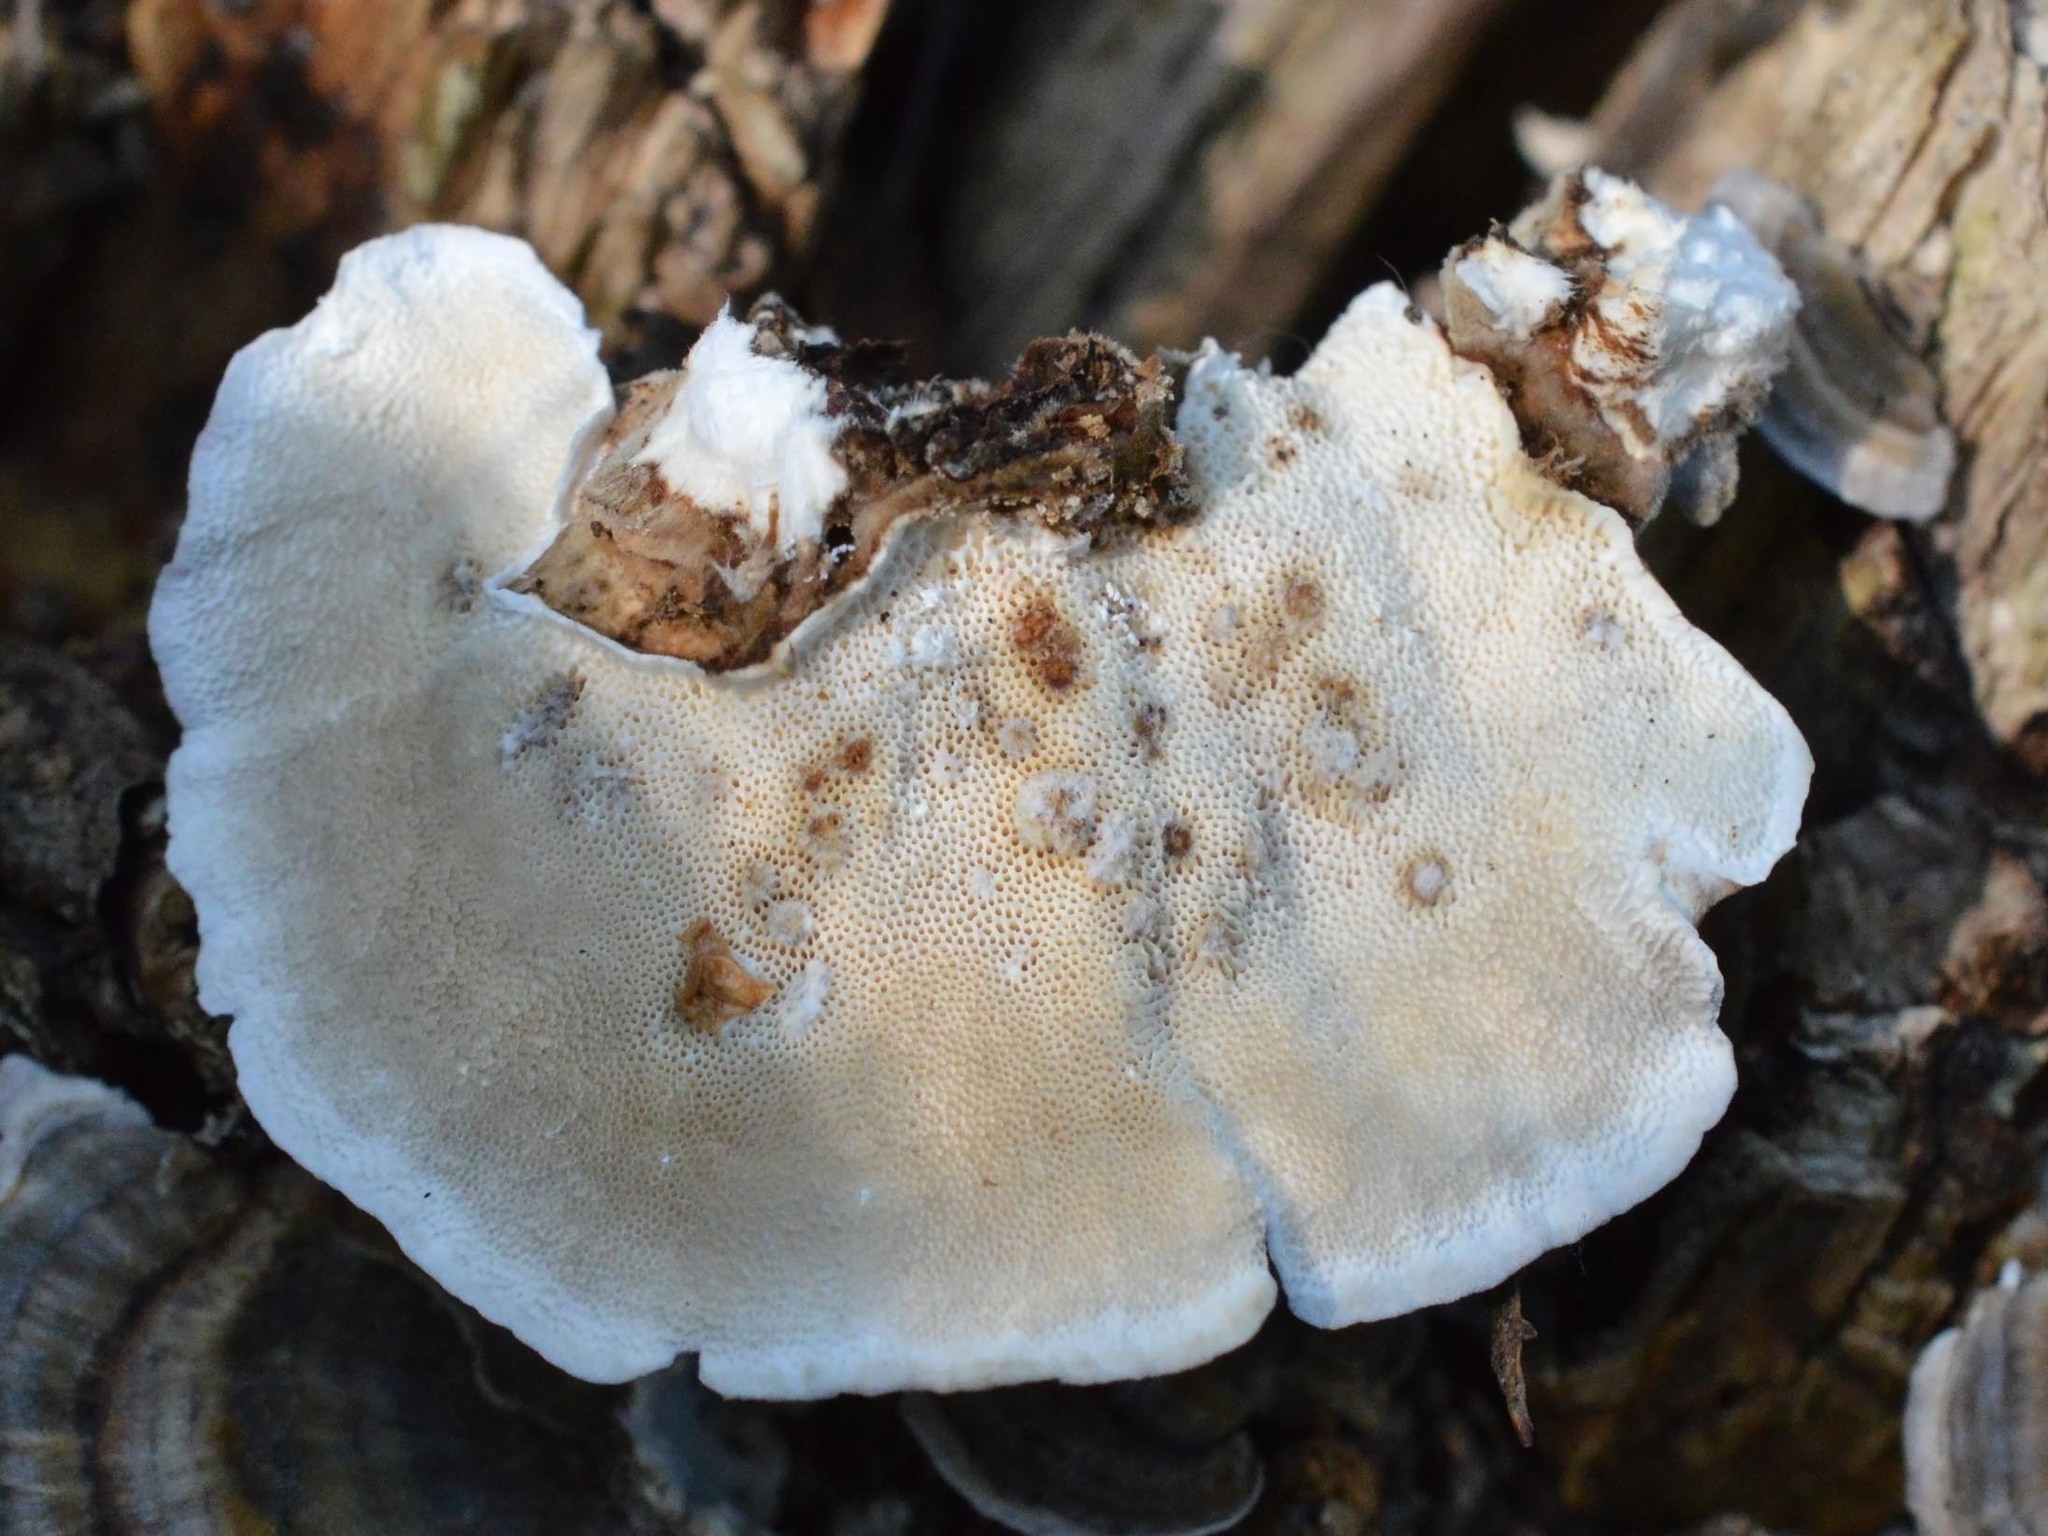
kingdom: Fungi
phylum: Basidiomycota
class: Agaricomycetes
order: Polyporales
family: Polyporaceae
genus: Trametes
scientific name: Trametes versicolor
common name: Turkeytail
